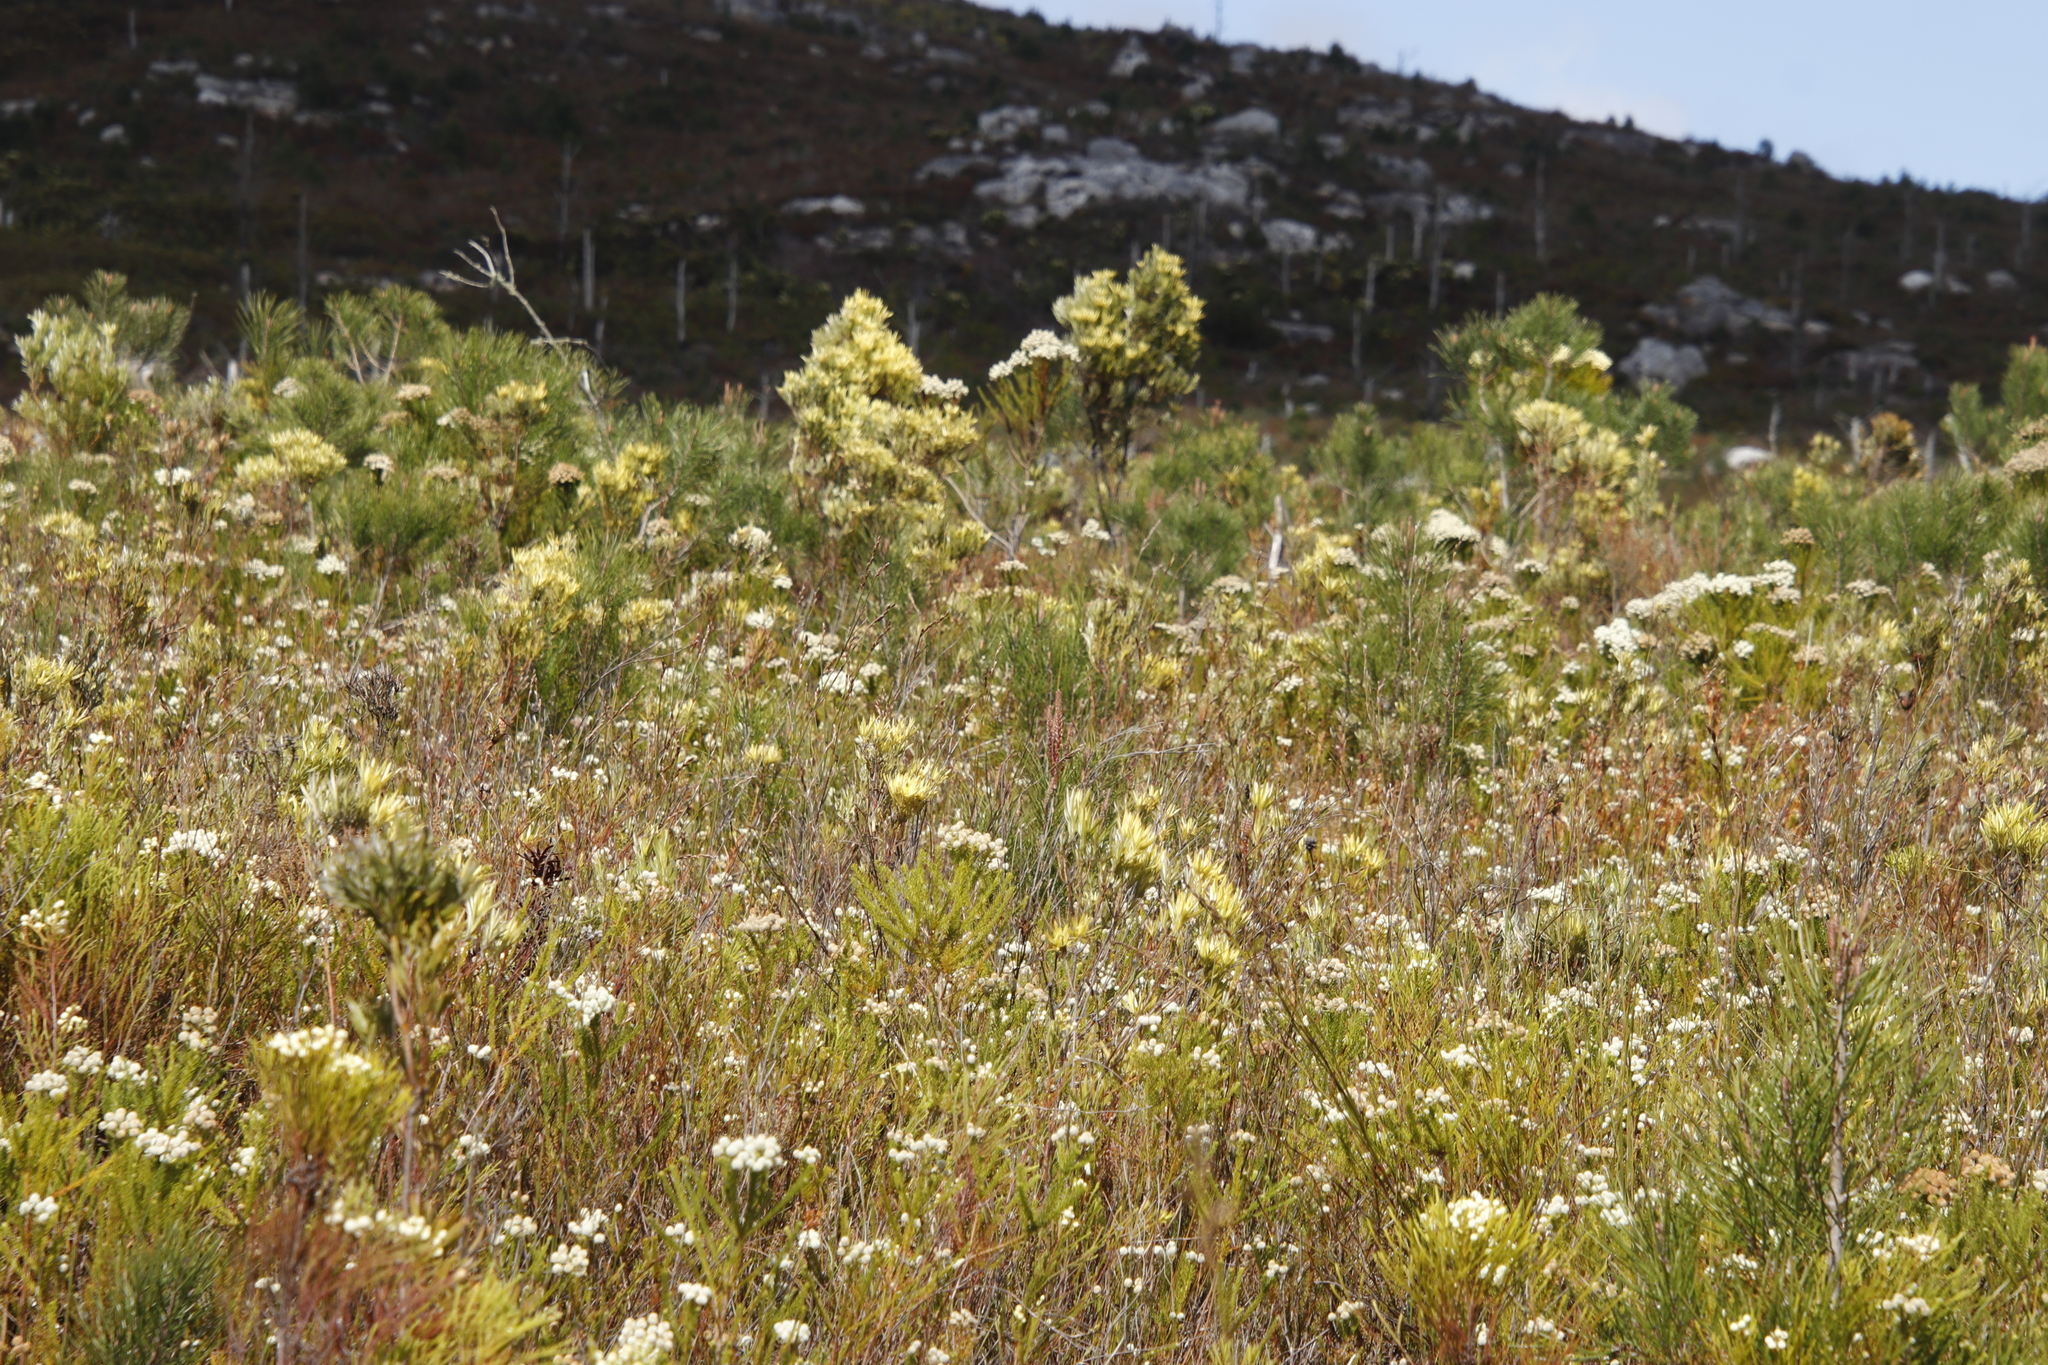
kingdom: Plantae
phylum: Tracheophyta
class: Magnoliopsida
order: Proteales
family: Proteaceae
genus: Leucadendron
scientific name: Leucadendron xanthoconus
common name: Sickle-leaf conebush
